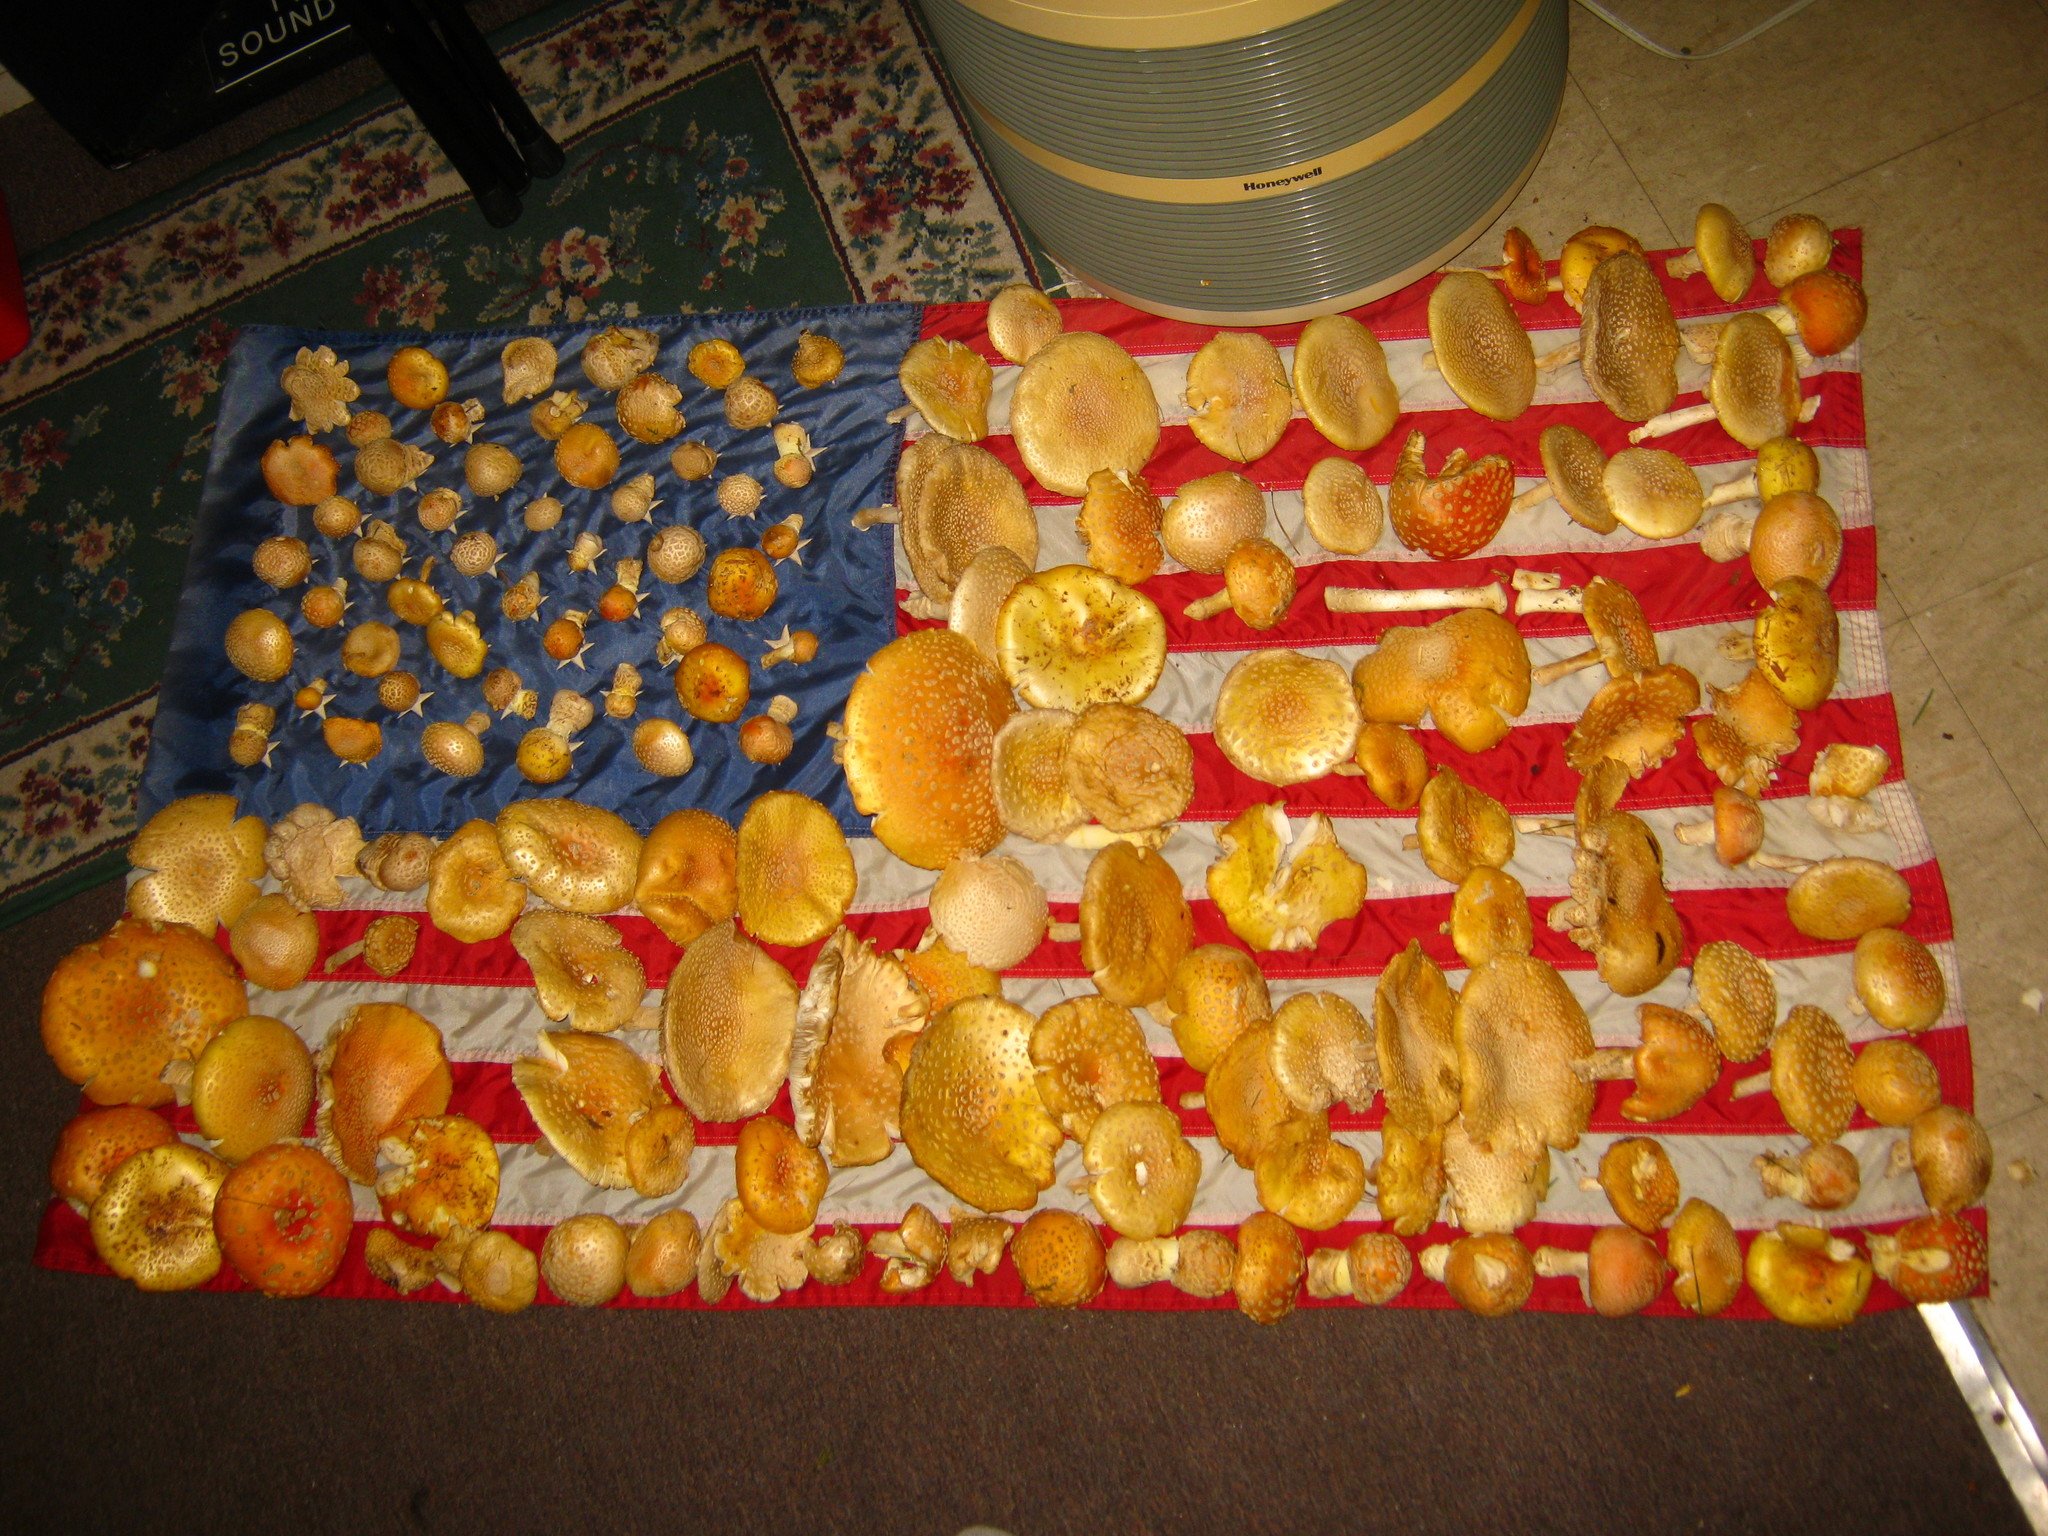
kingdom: Fungi
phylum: Basidiomycota
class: Agaricomycetes
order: Agaricales
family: Amanitaceae
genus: Amanita
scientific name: Amanita muscaria
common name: Fly agaric
